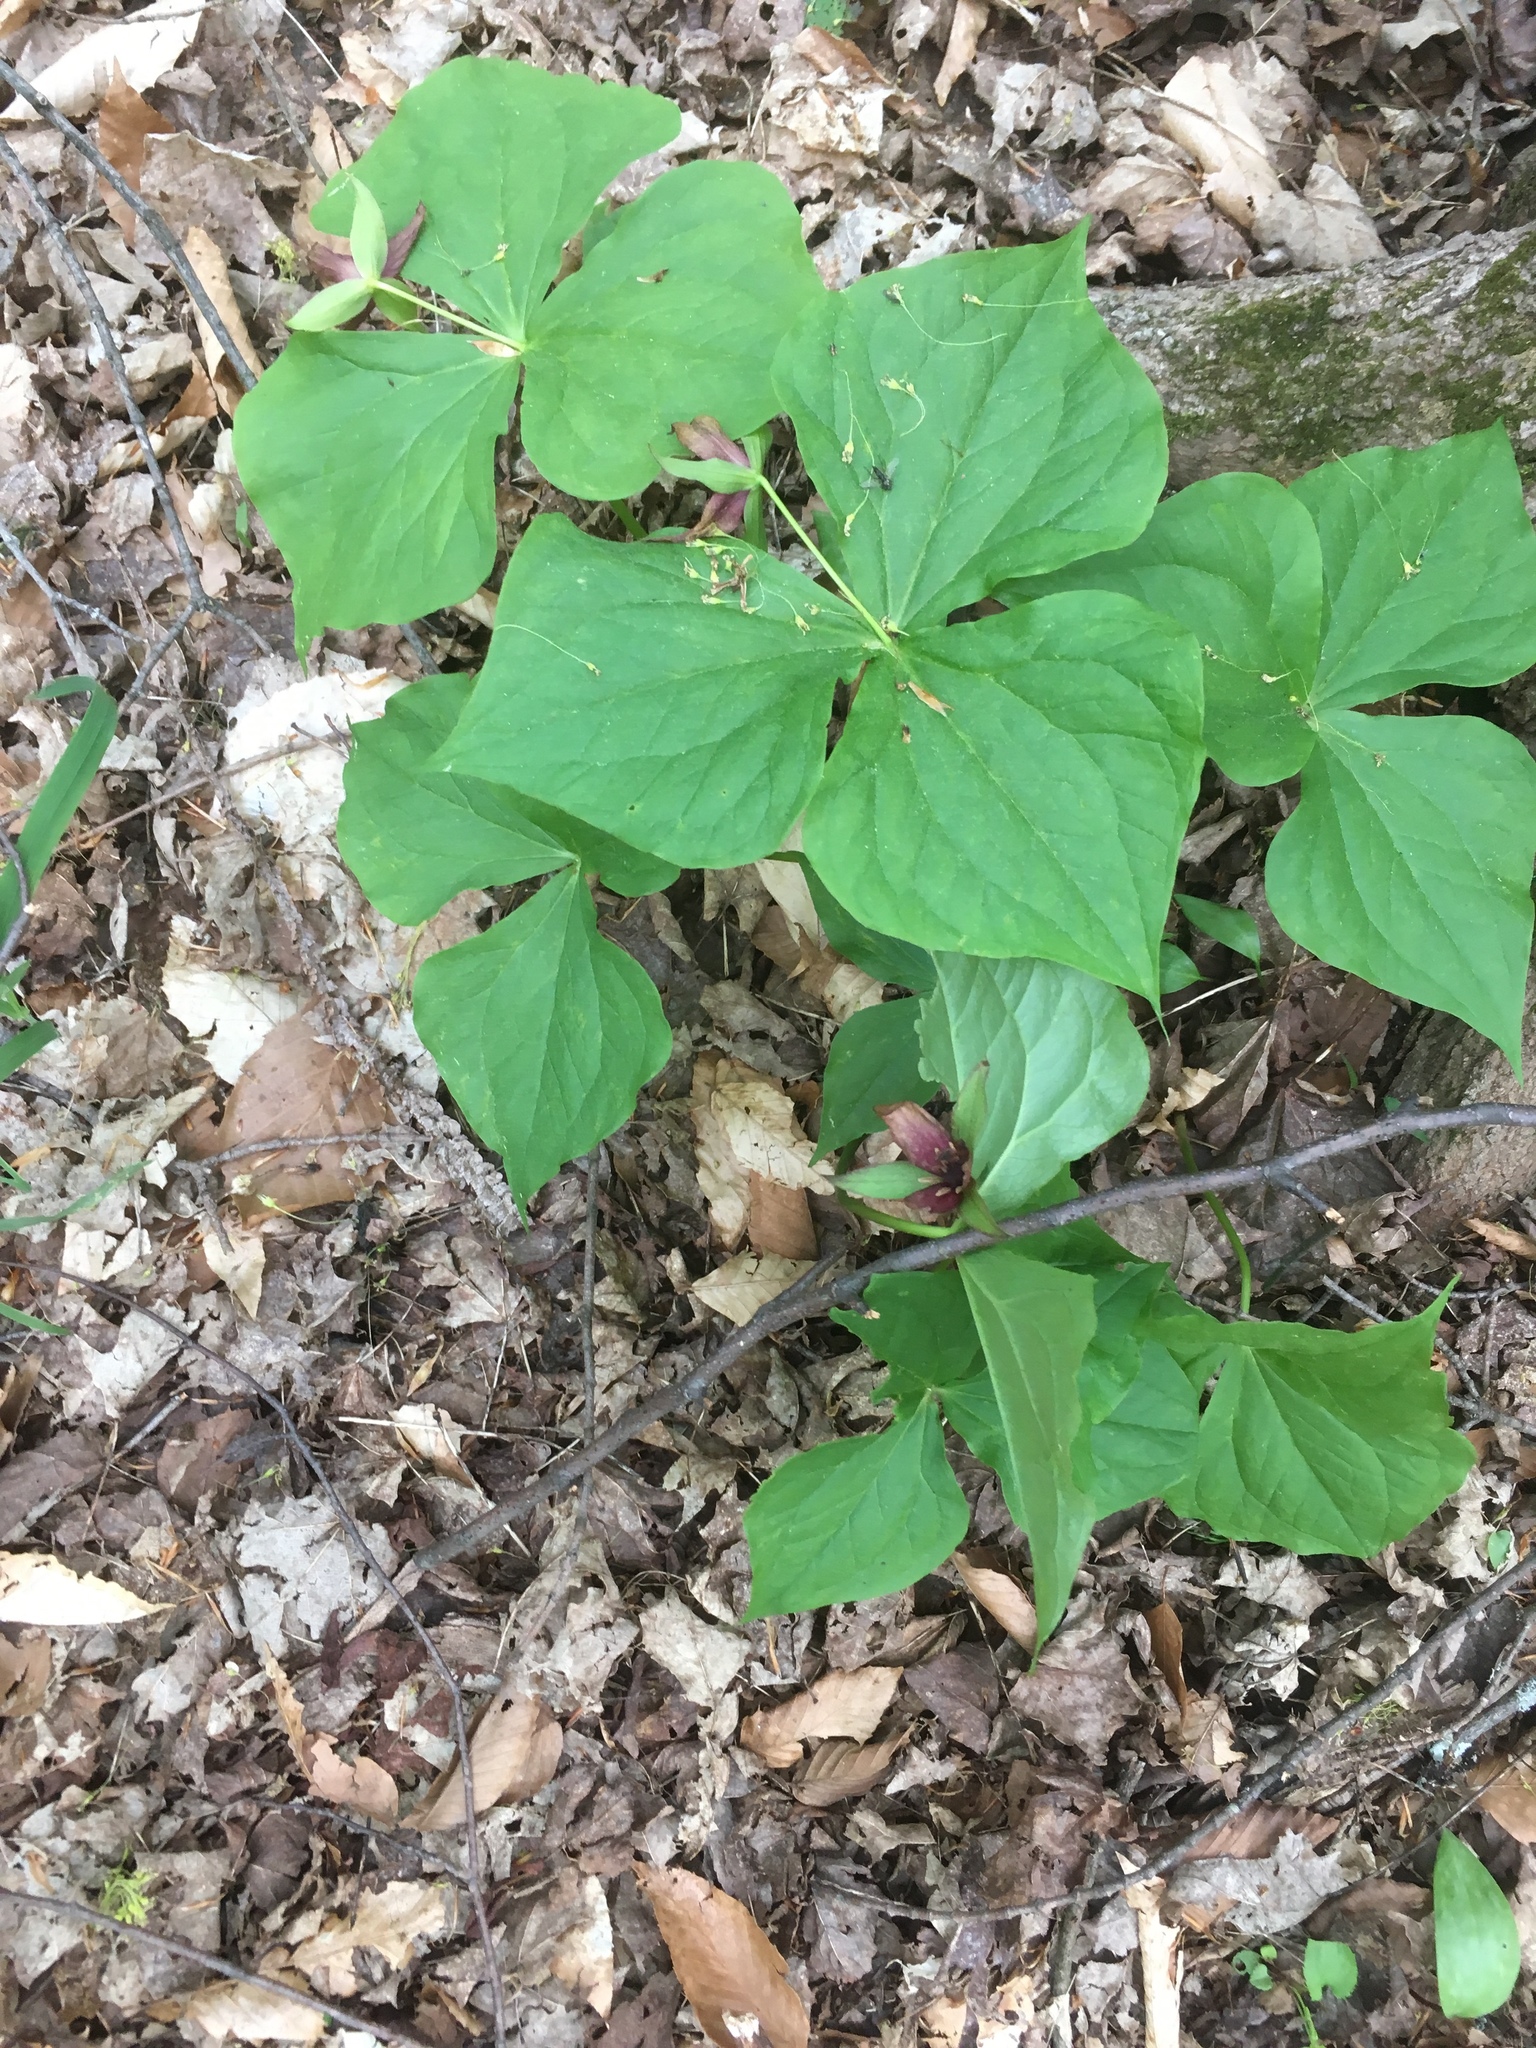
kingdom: Plantae
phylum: Tracheophyta
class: Liliopsida
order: Liliales
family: Melanthiaceae
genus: Trillium
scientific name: Trillium erectum
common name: Purple trillium
